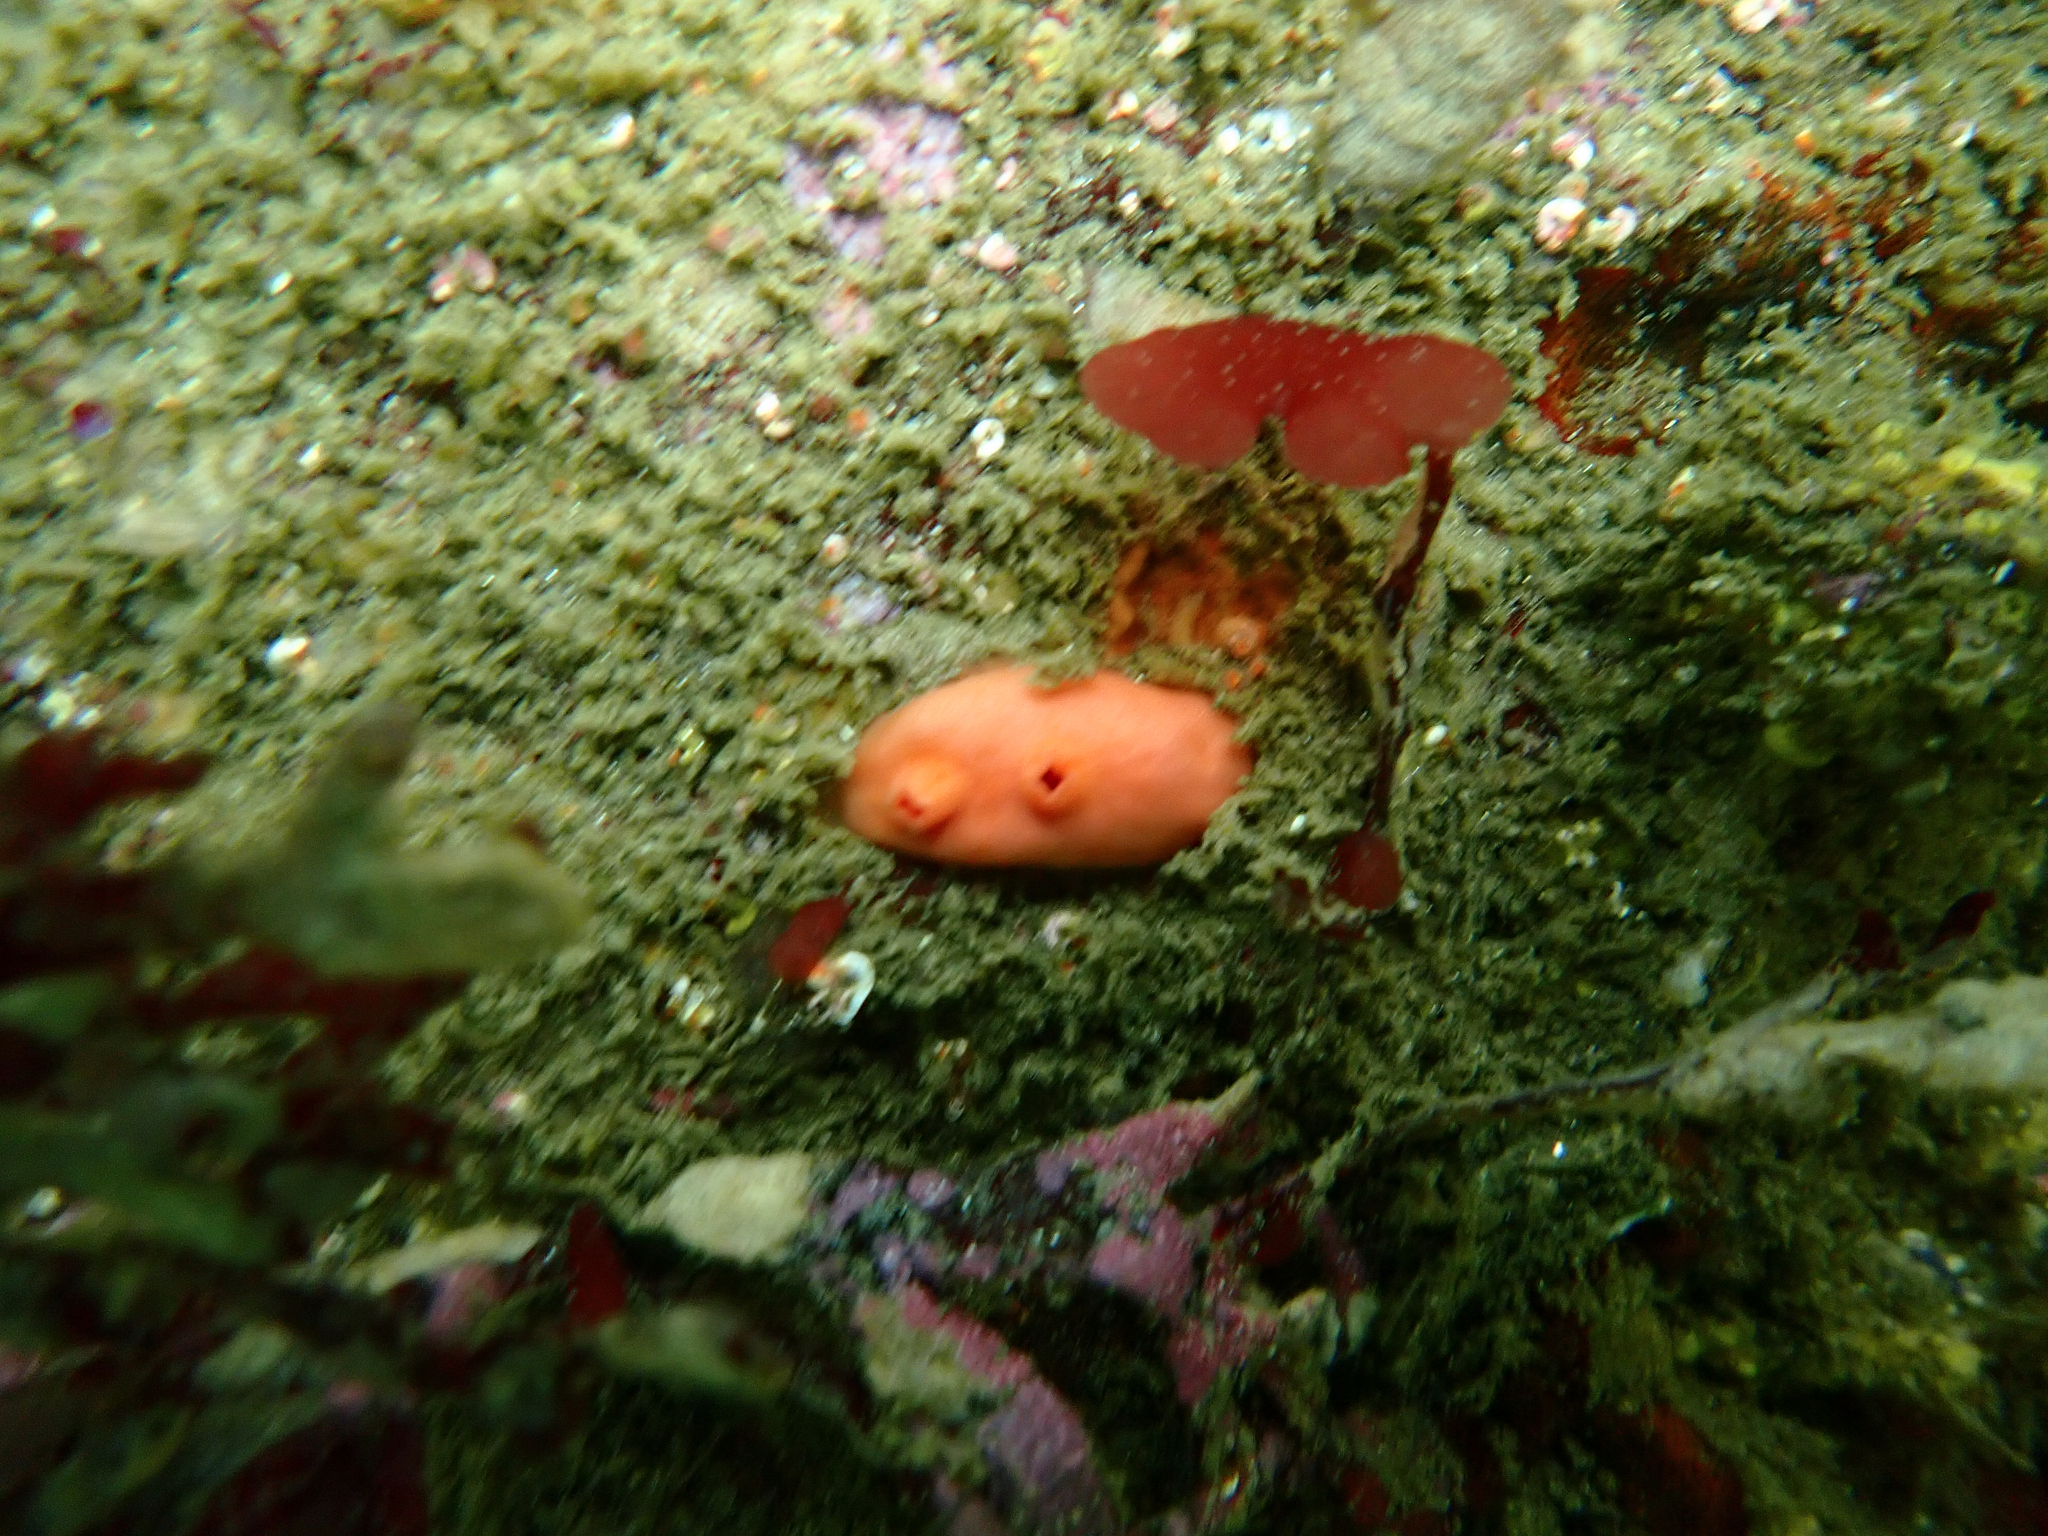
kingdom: Animalia
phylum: Chordata
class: Ascidiacea
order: Stolidobranchia
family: Styelidae
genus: Cnemidocarpa
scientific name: Cnemidocarpa finmarkiensis
